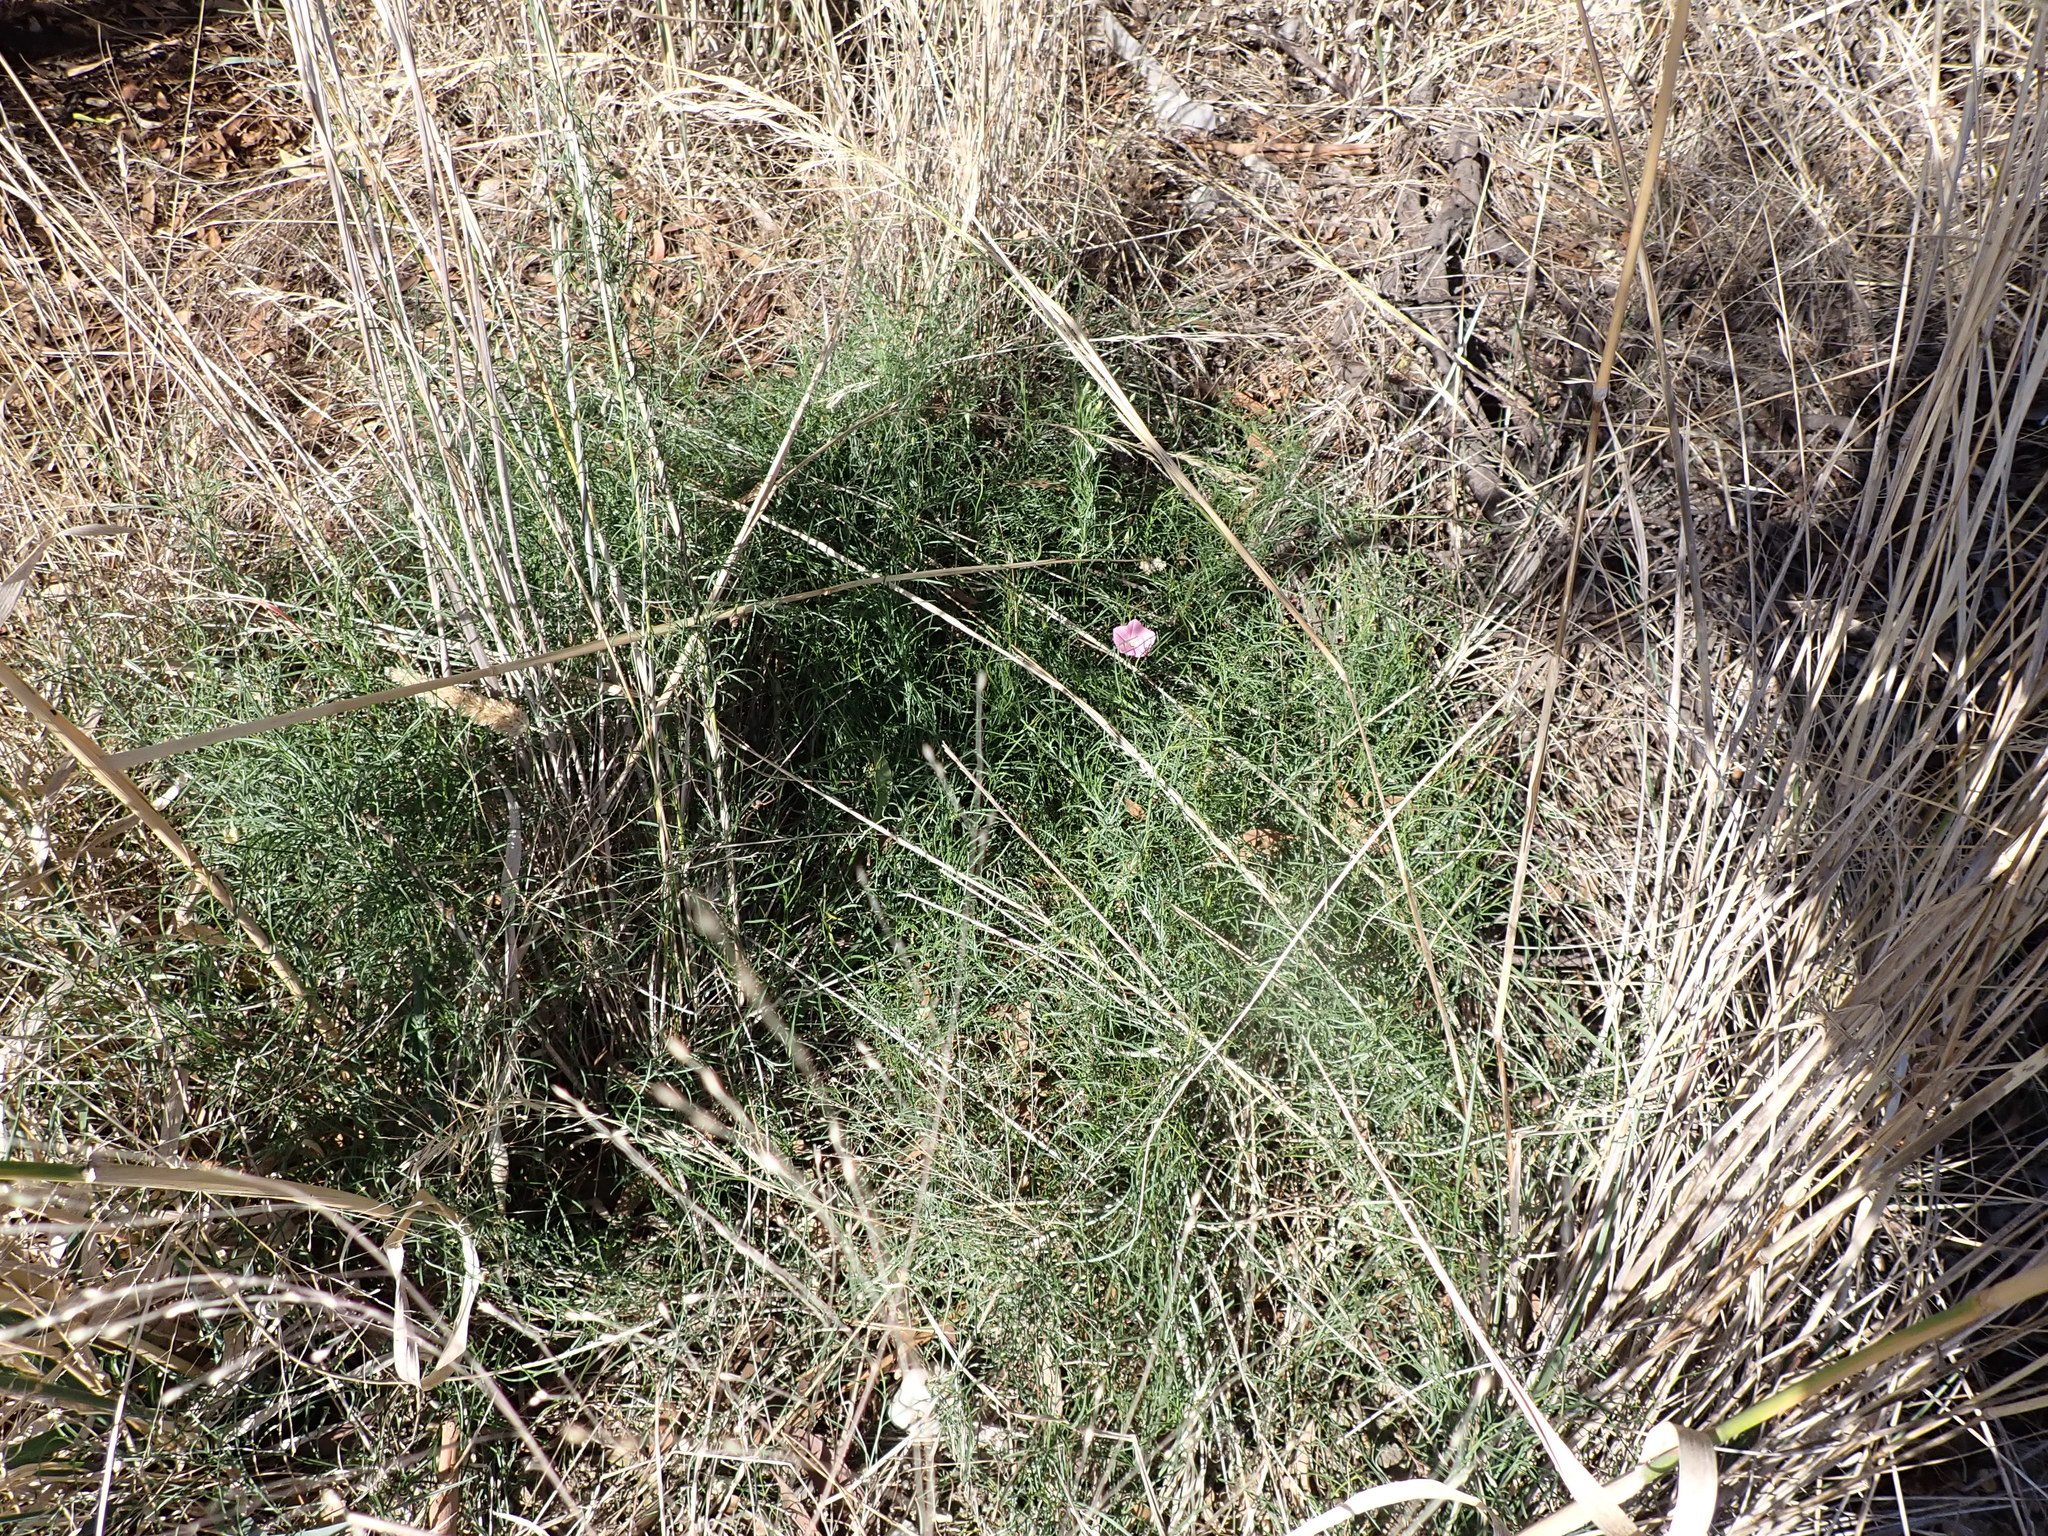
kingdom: Plantae
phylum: Tracheophyta
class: Magnoliopsida
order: Solanales
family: Convolvulaceae
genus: Convolvulus
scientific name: Convolvulus angustissimus
